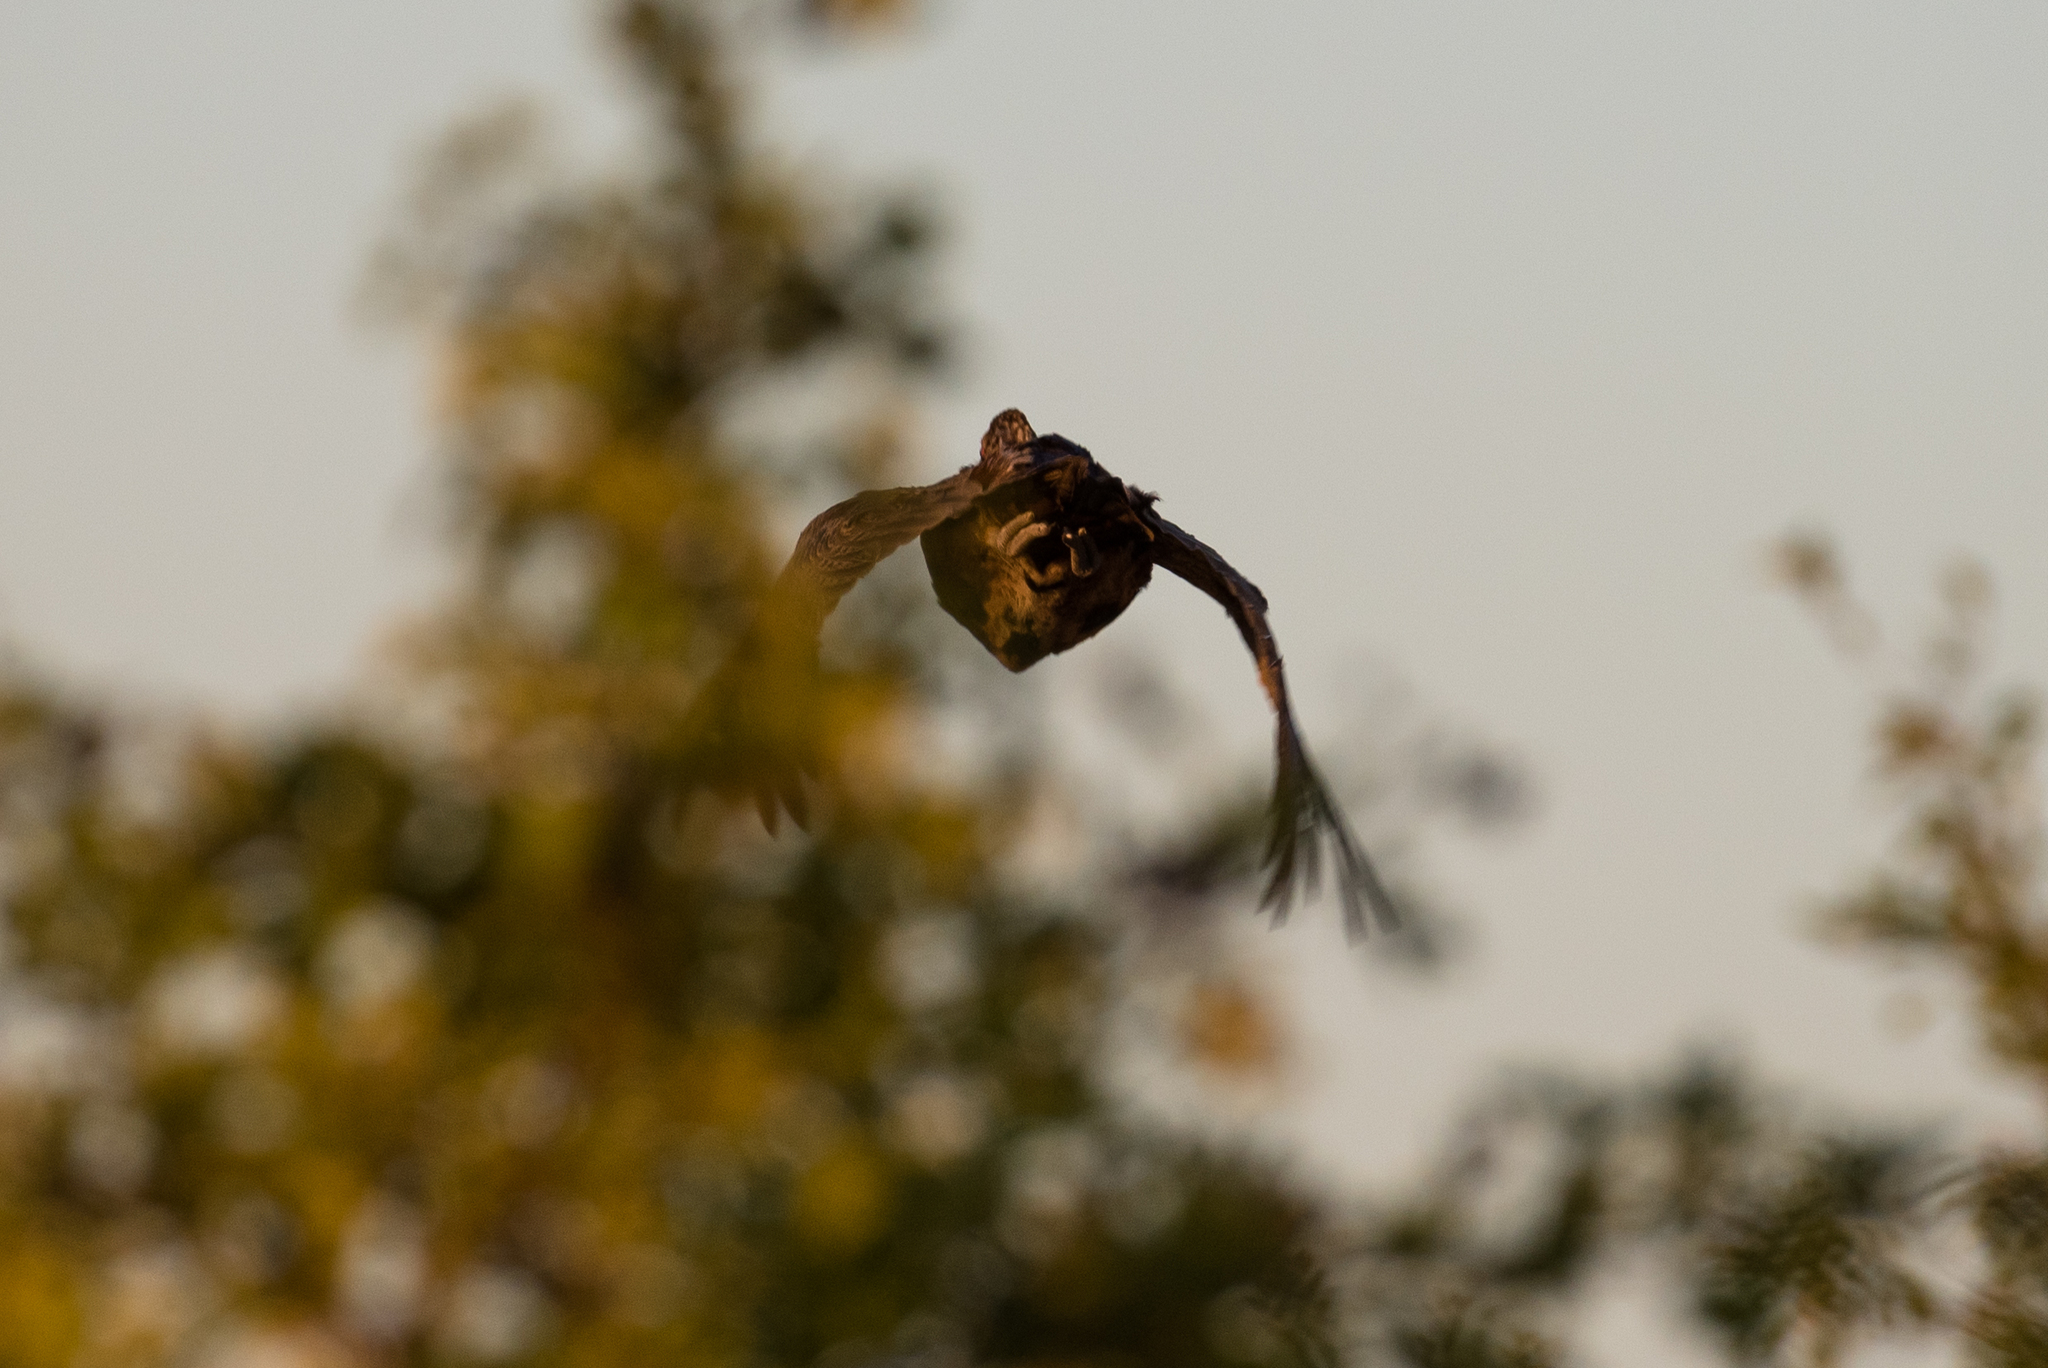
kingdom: Animalia
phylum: Chordata
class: Aves
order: Galliformes
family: Phasianidae
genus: Phasianus
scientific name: Phasianus colchicus
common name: Common pheasant
